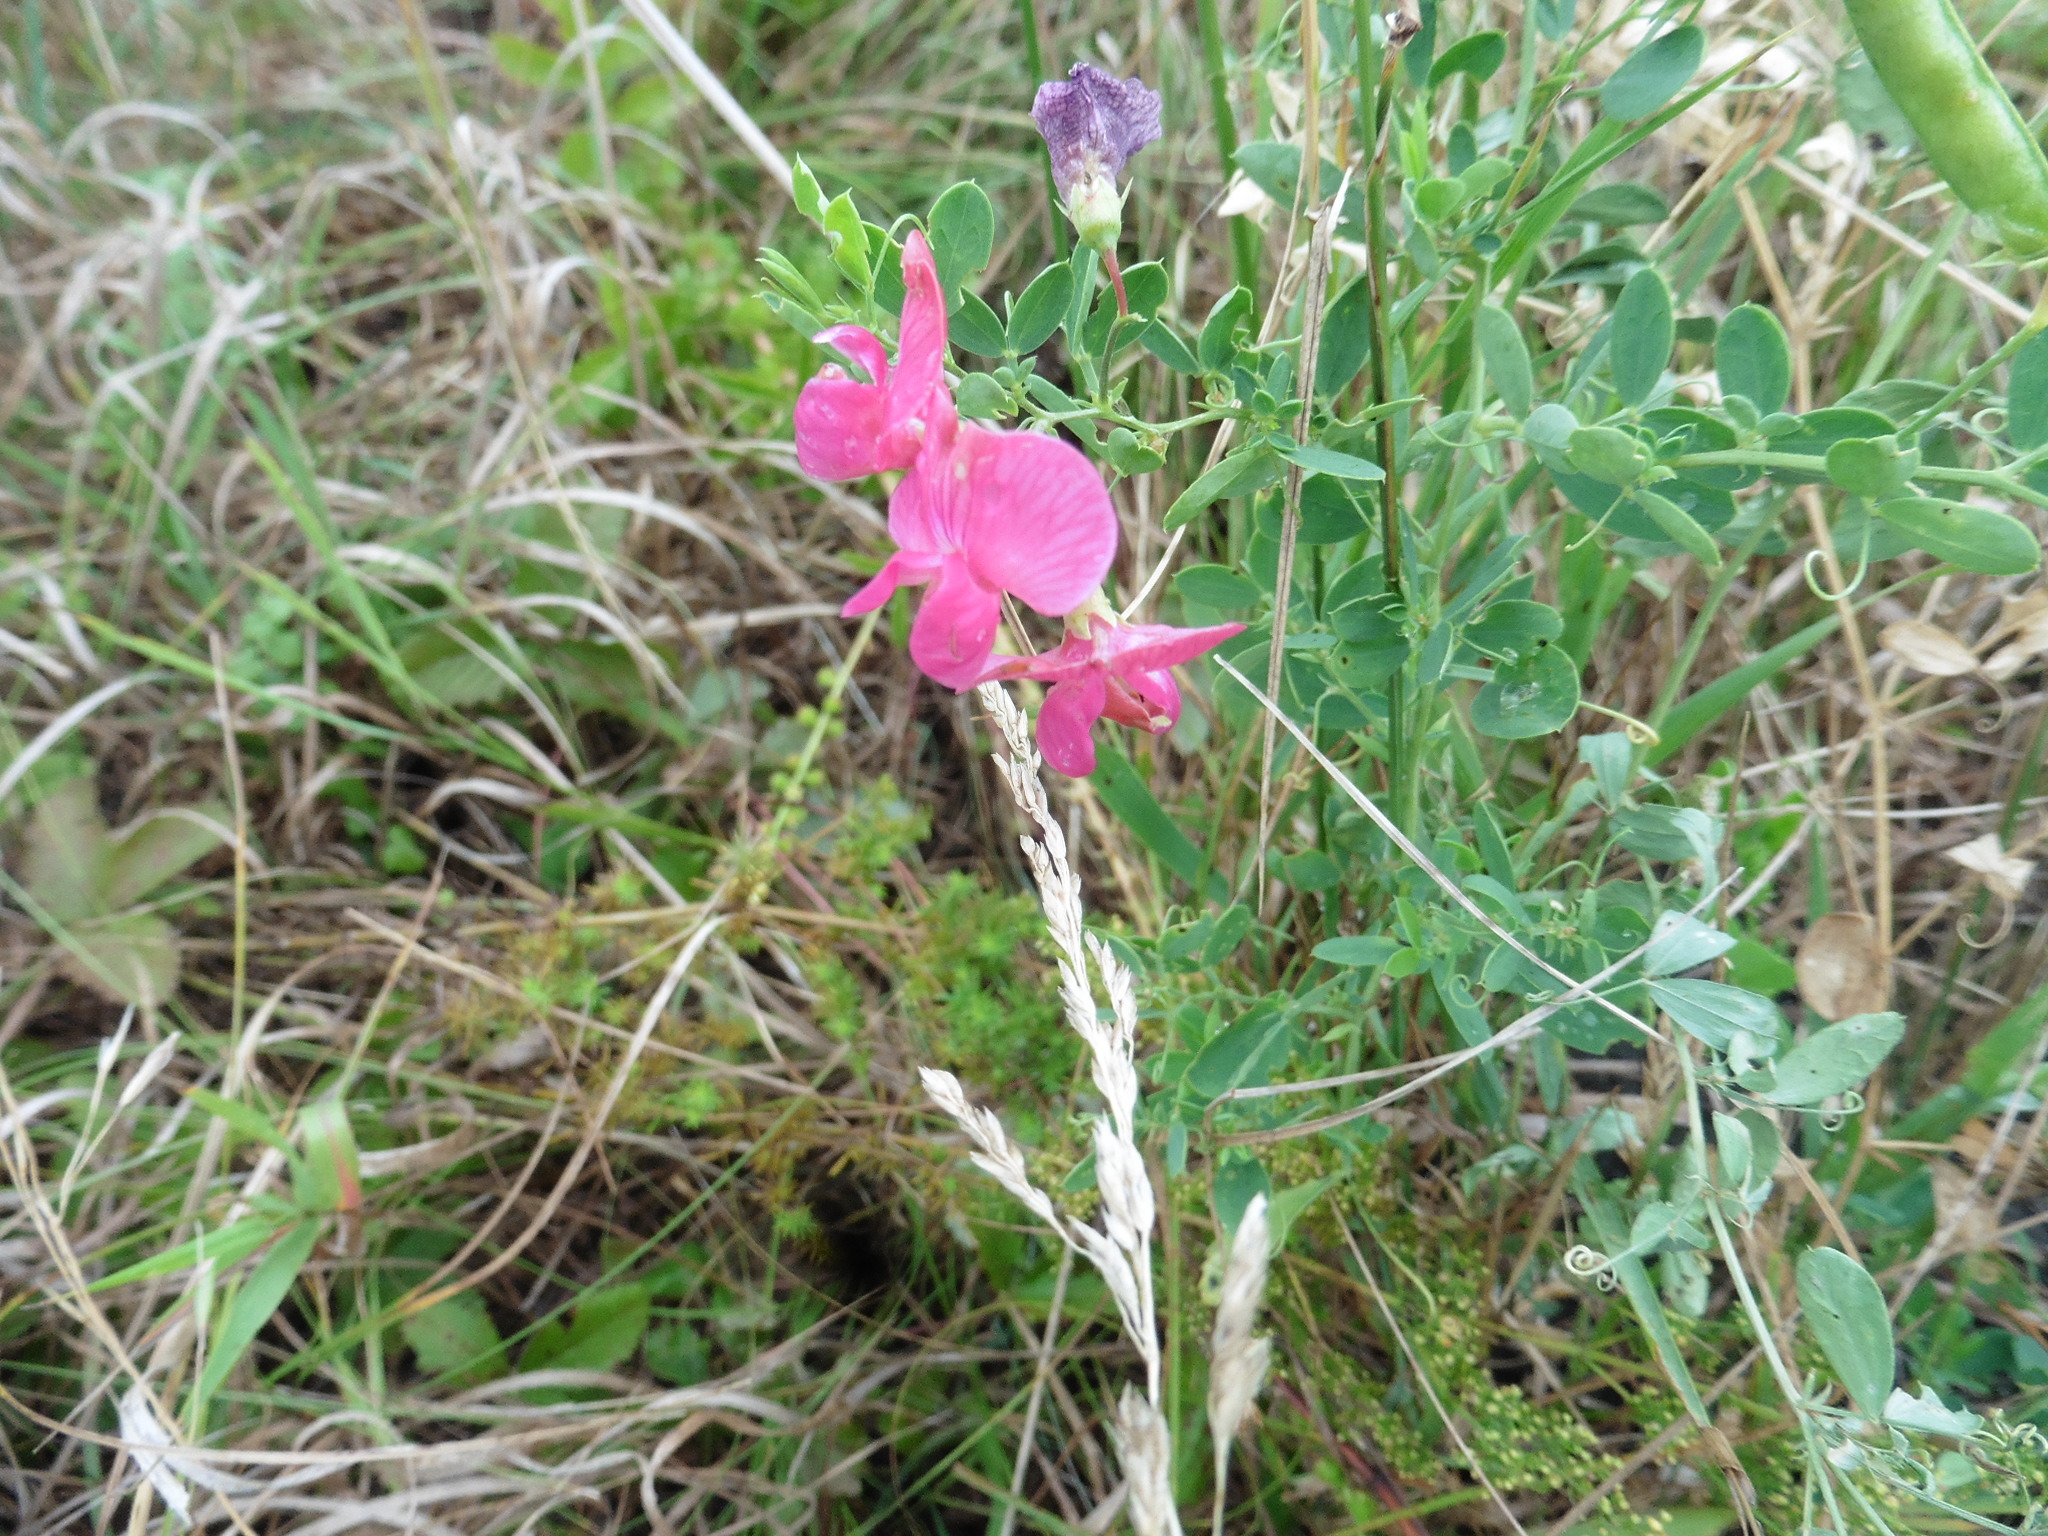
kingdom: Plantae
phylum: Tracheophyta
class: Magnoliopsida
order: Fabales
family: Fabaceae
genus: Lathyrus
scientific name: Lathyrus tuberosus
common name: Tuberous pea
